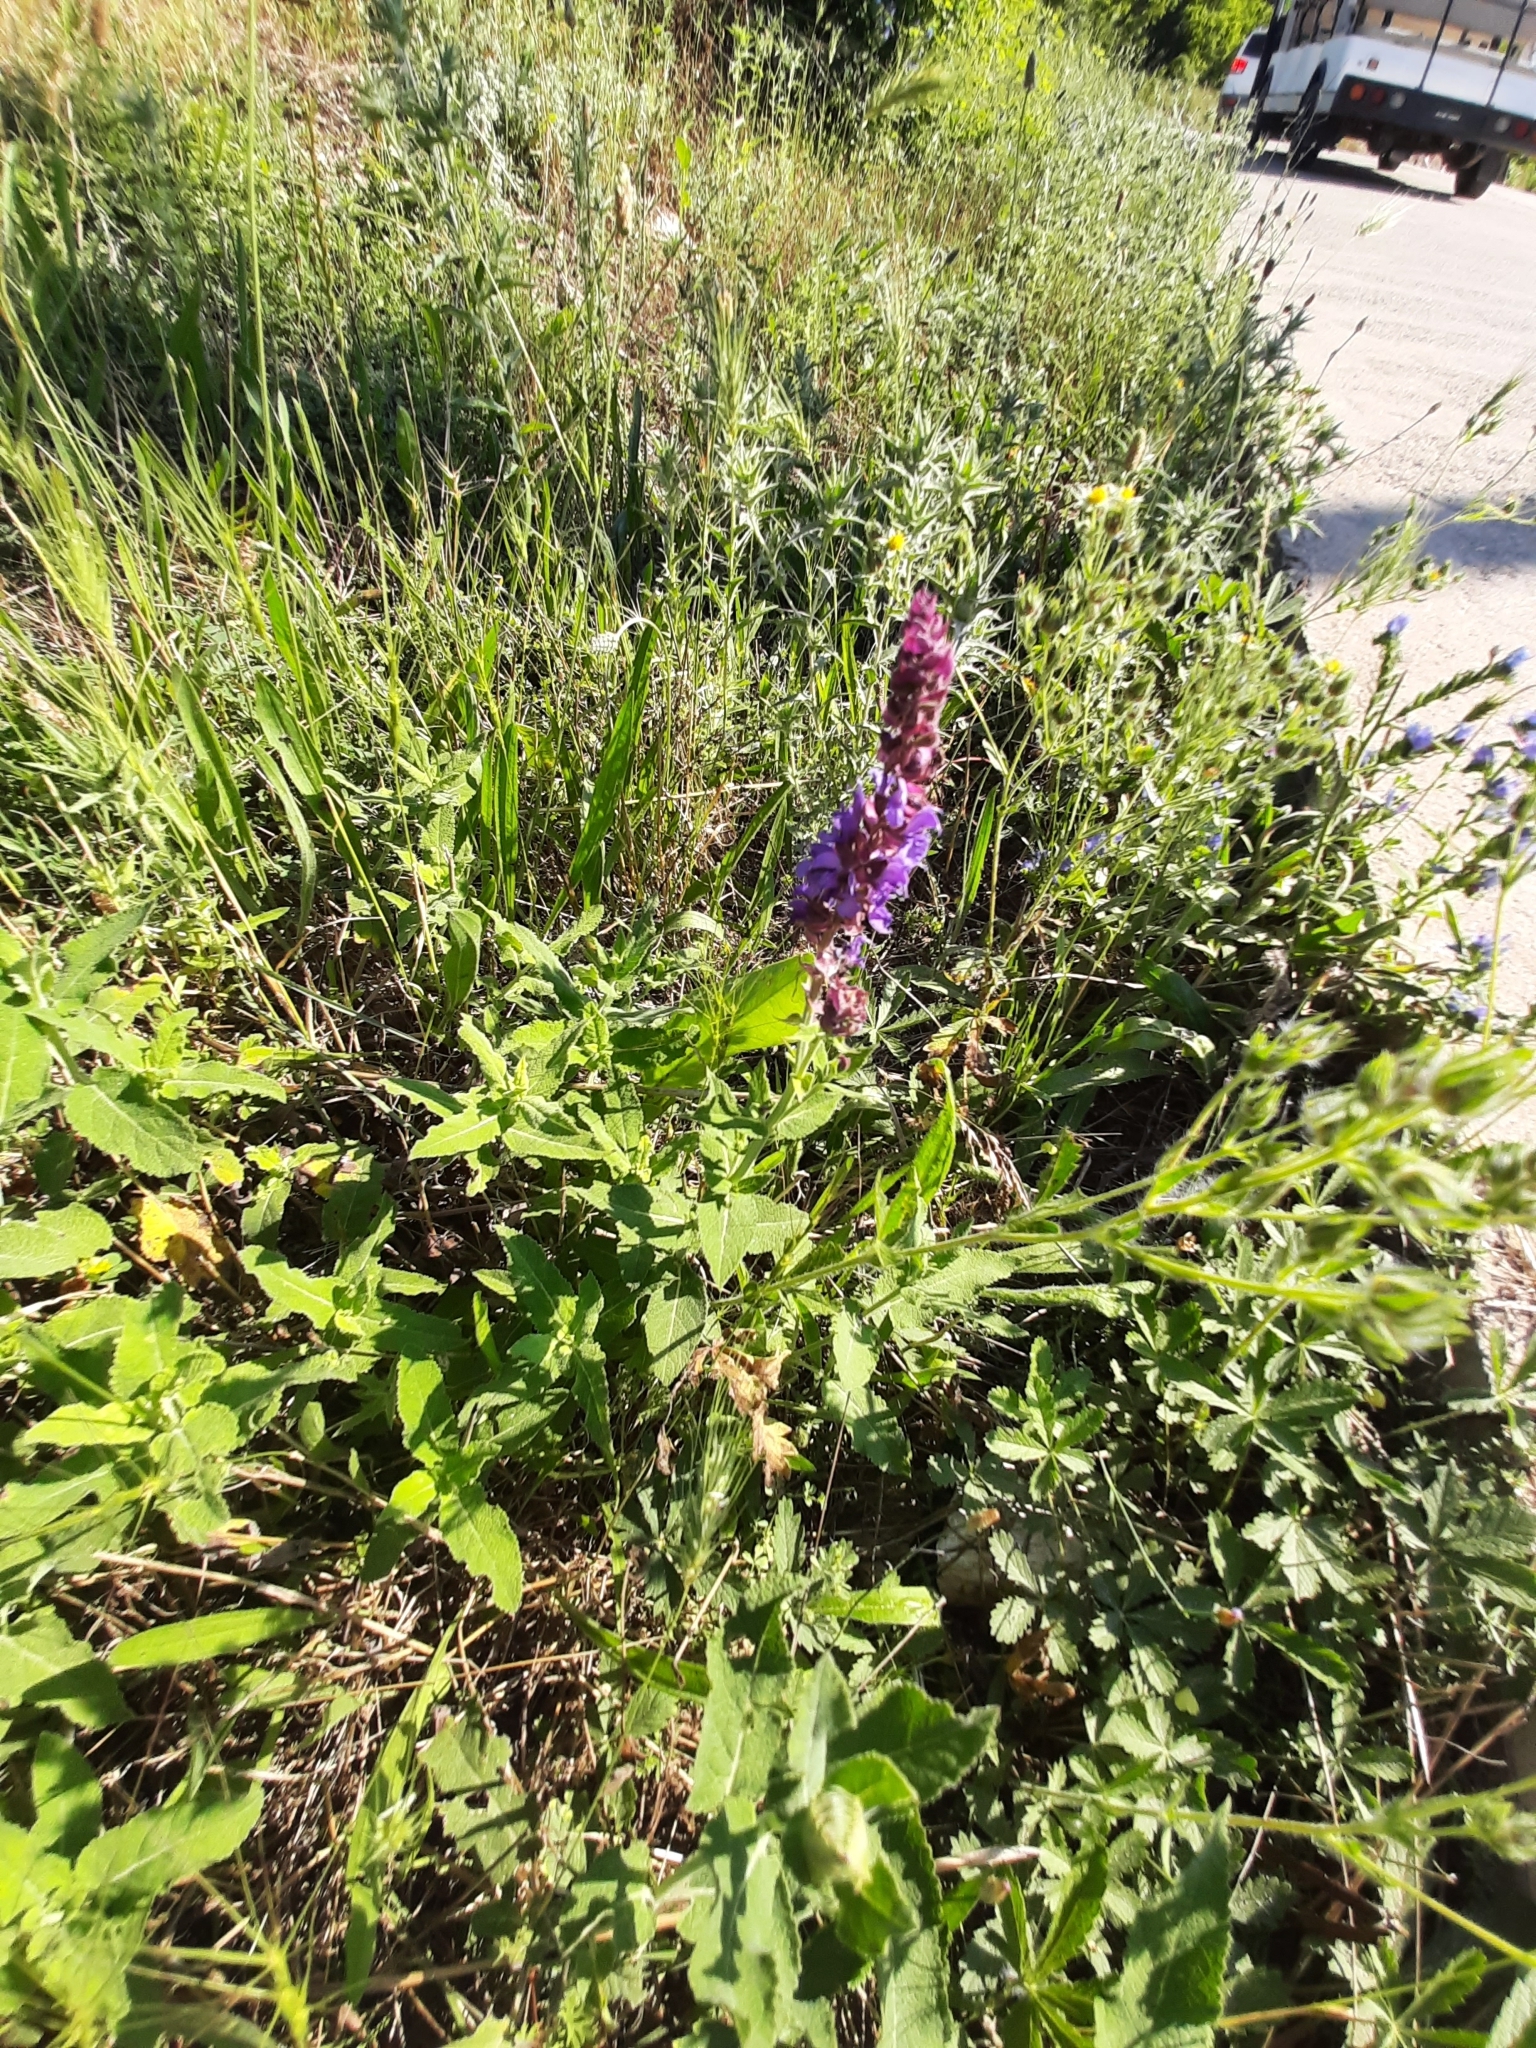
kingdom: Plantae
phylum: Tracheophyta
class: Magnoliopsida
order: Lamiales
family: Lamiaceae
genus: Salvia
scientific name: Salvia nemorosa
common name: Balkan clary
